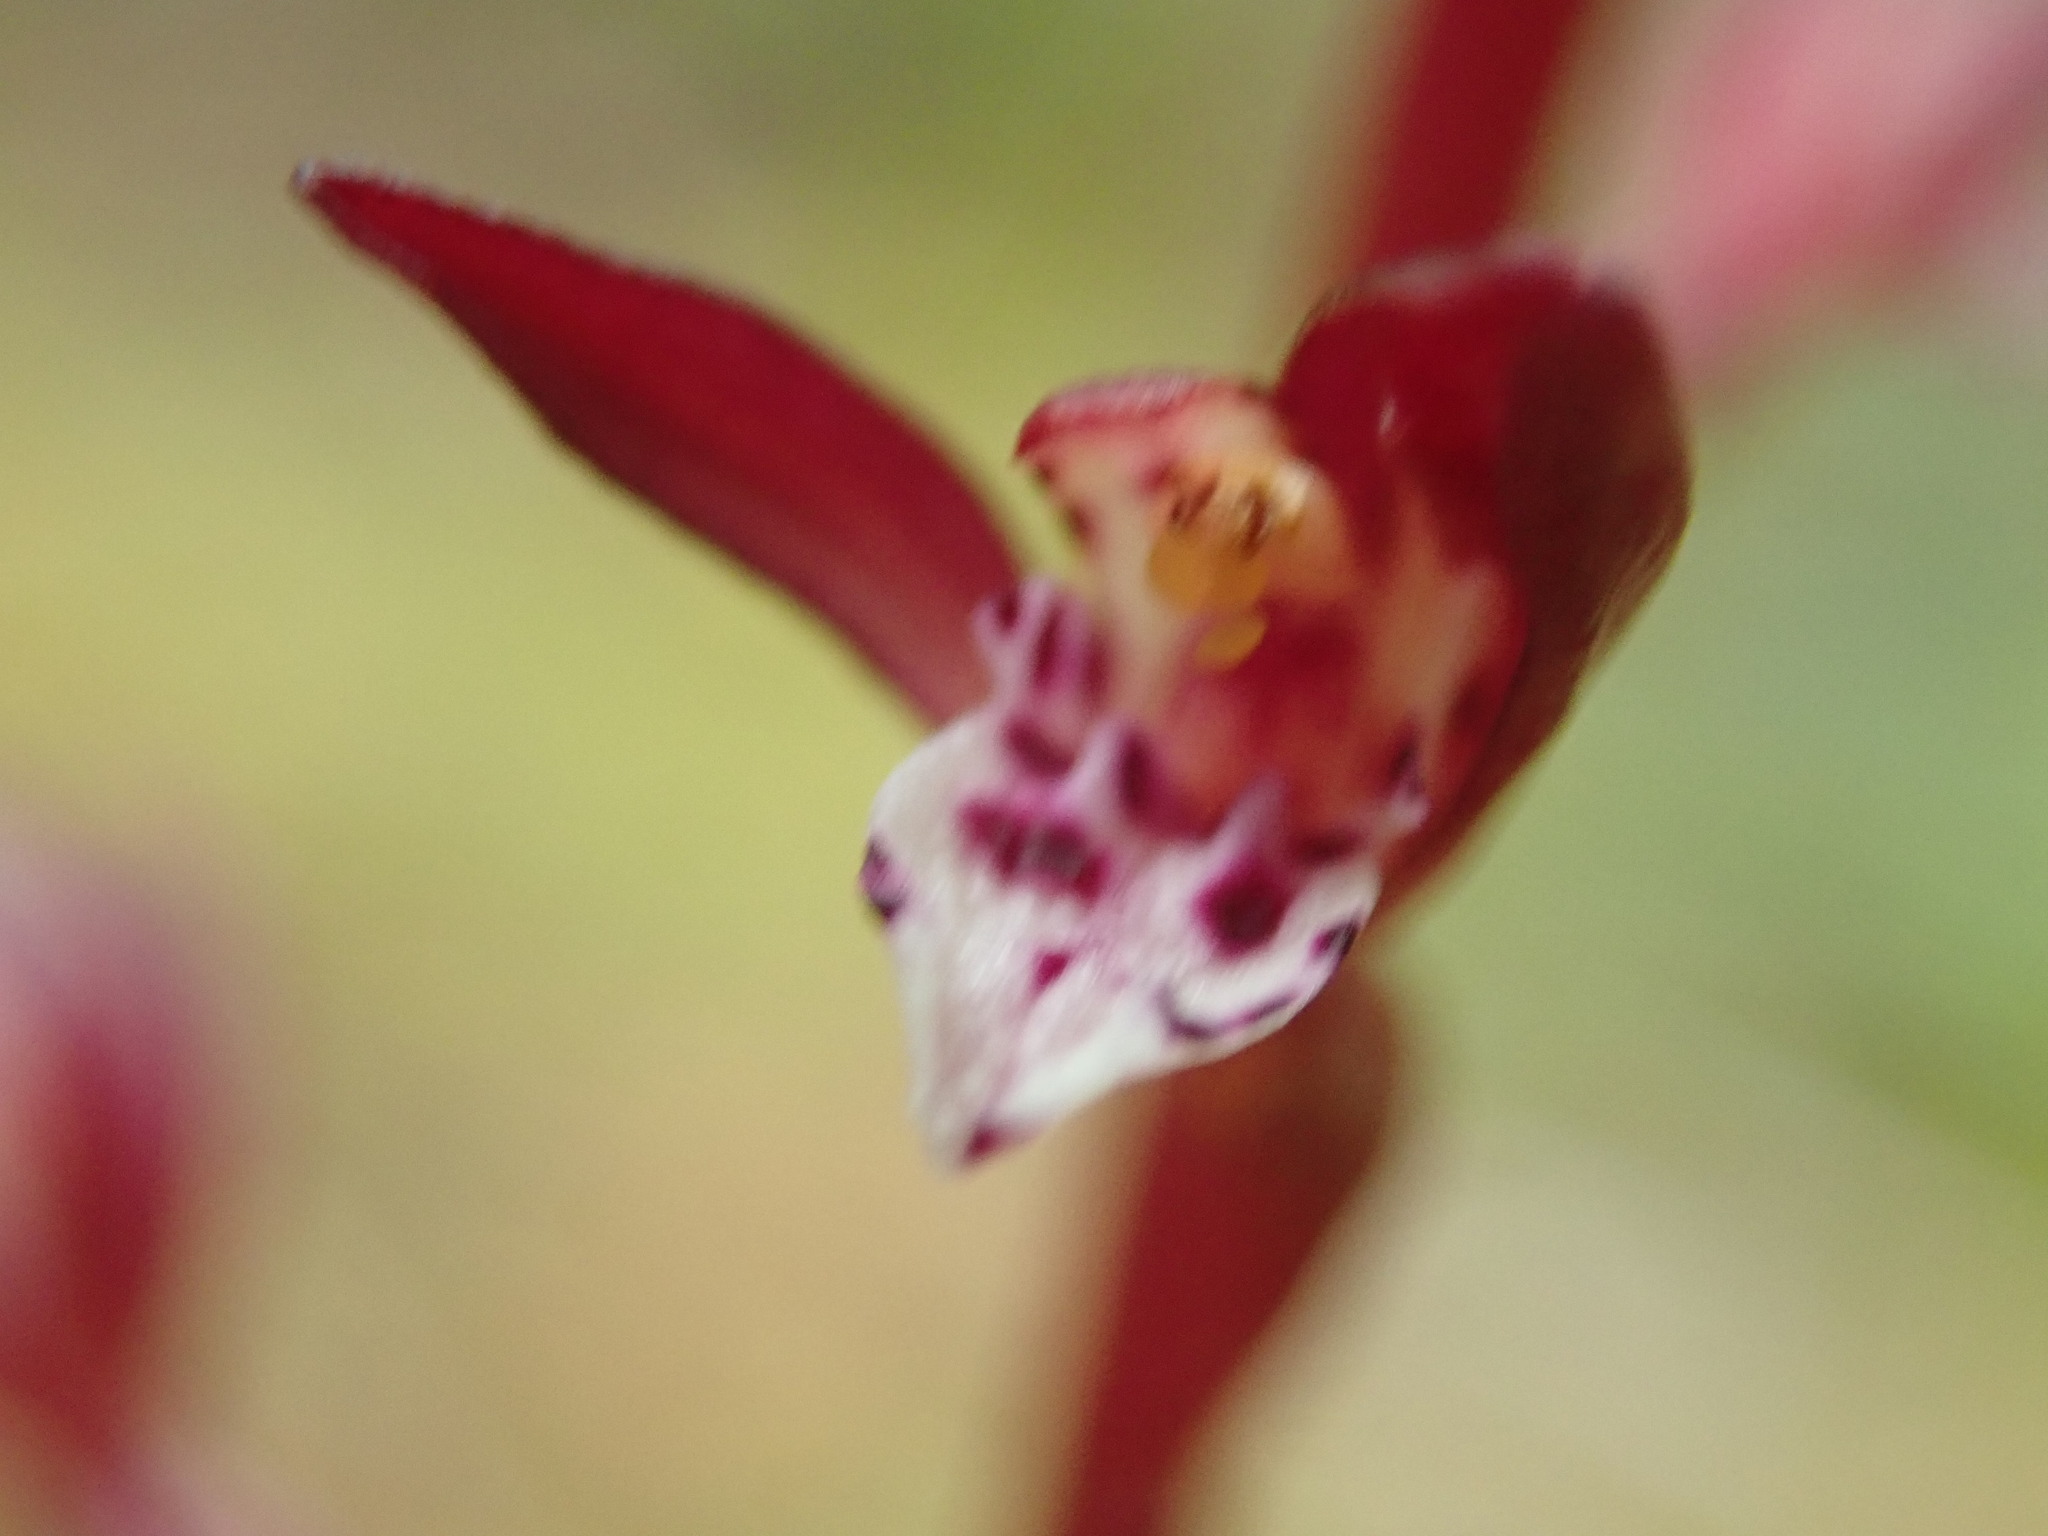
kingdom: Plantae
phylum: Tracheophyta
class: Liliopsida
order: Asparagales
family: Orchidaceae
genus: Corallorhiza
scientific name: Corallorhiza maculata
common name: Spotted coralroot
